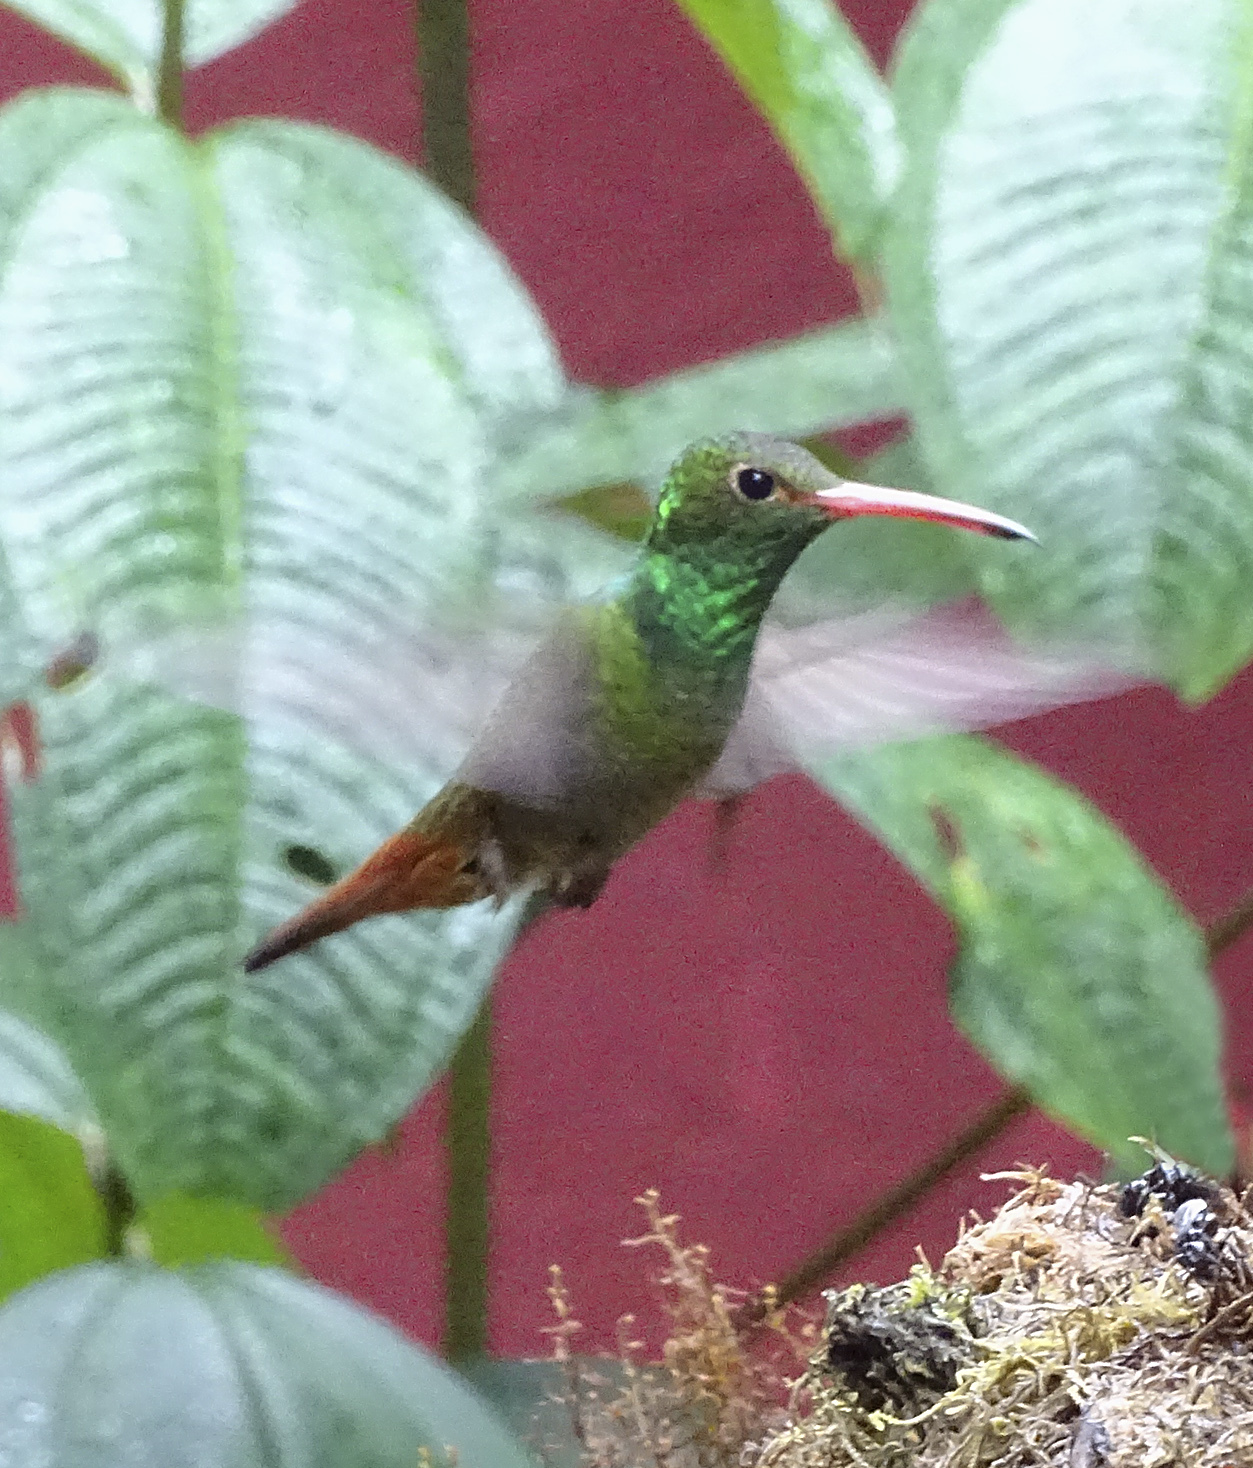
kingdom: Animalia
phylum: Chordata
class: Aves
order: Apodiformes
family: Trochilidae
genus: Amazilia
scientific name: Amazilia tzacatl
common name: Rufous-tailed hummingbird
